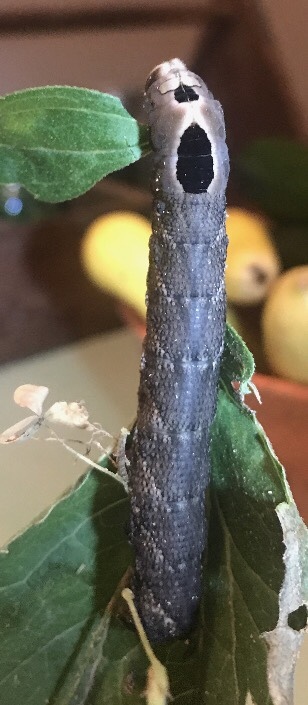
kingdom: Animalia
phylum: Arthropoda
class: Insecta
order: Lepidoptera
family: Sphingidae
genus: Lintneria
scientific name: Lintneria eremitus
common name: Hermit sphinx
